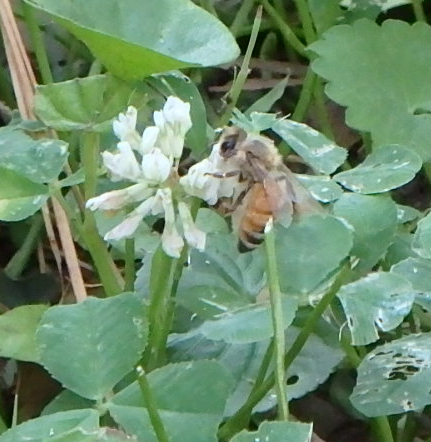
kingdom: Animalia
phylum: Arthropoda
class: Insecta
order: Hymenoptera
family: Apidae
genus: Apis
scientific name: Apis mellifera
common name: Honey bee
